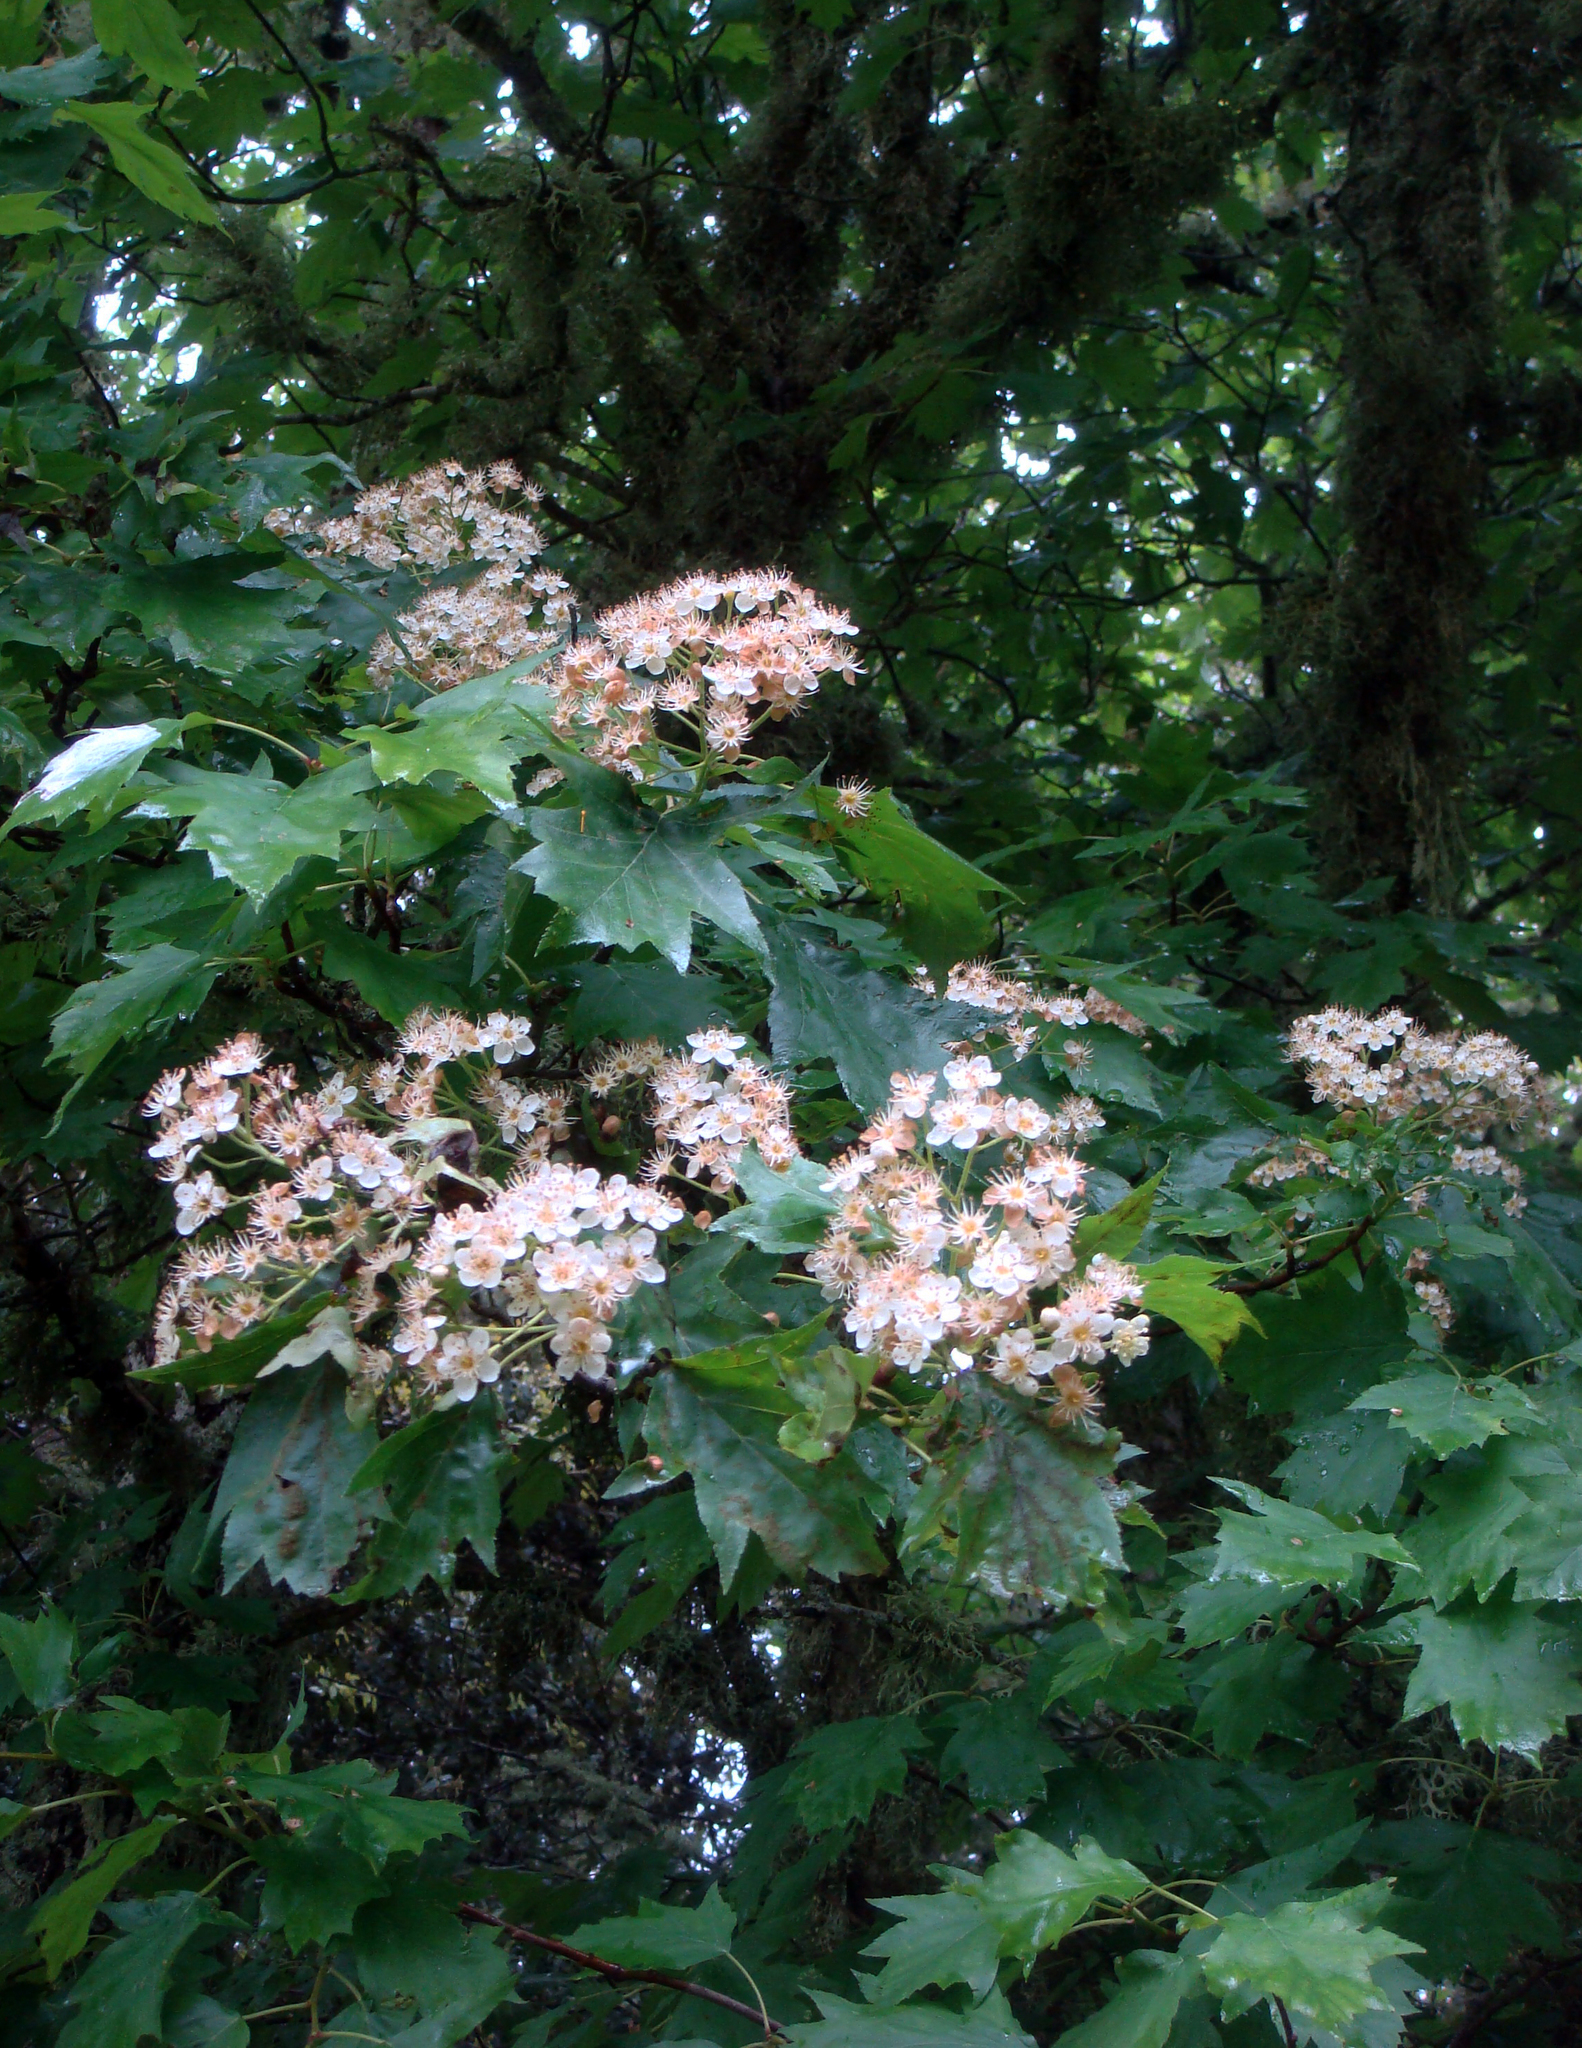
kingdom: Plantae
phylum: Tracheophyta
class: Magnoliopsida
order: Rosales
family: Rosaceae
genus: Torminalis
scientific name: Torminalis glaberrima
